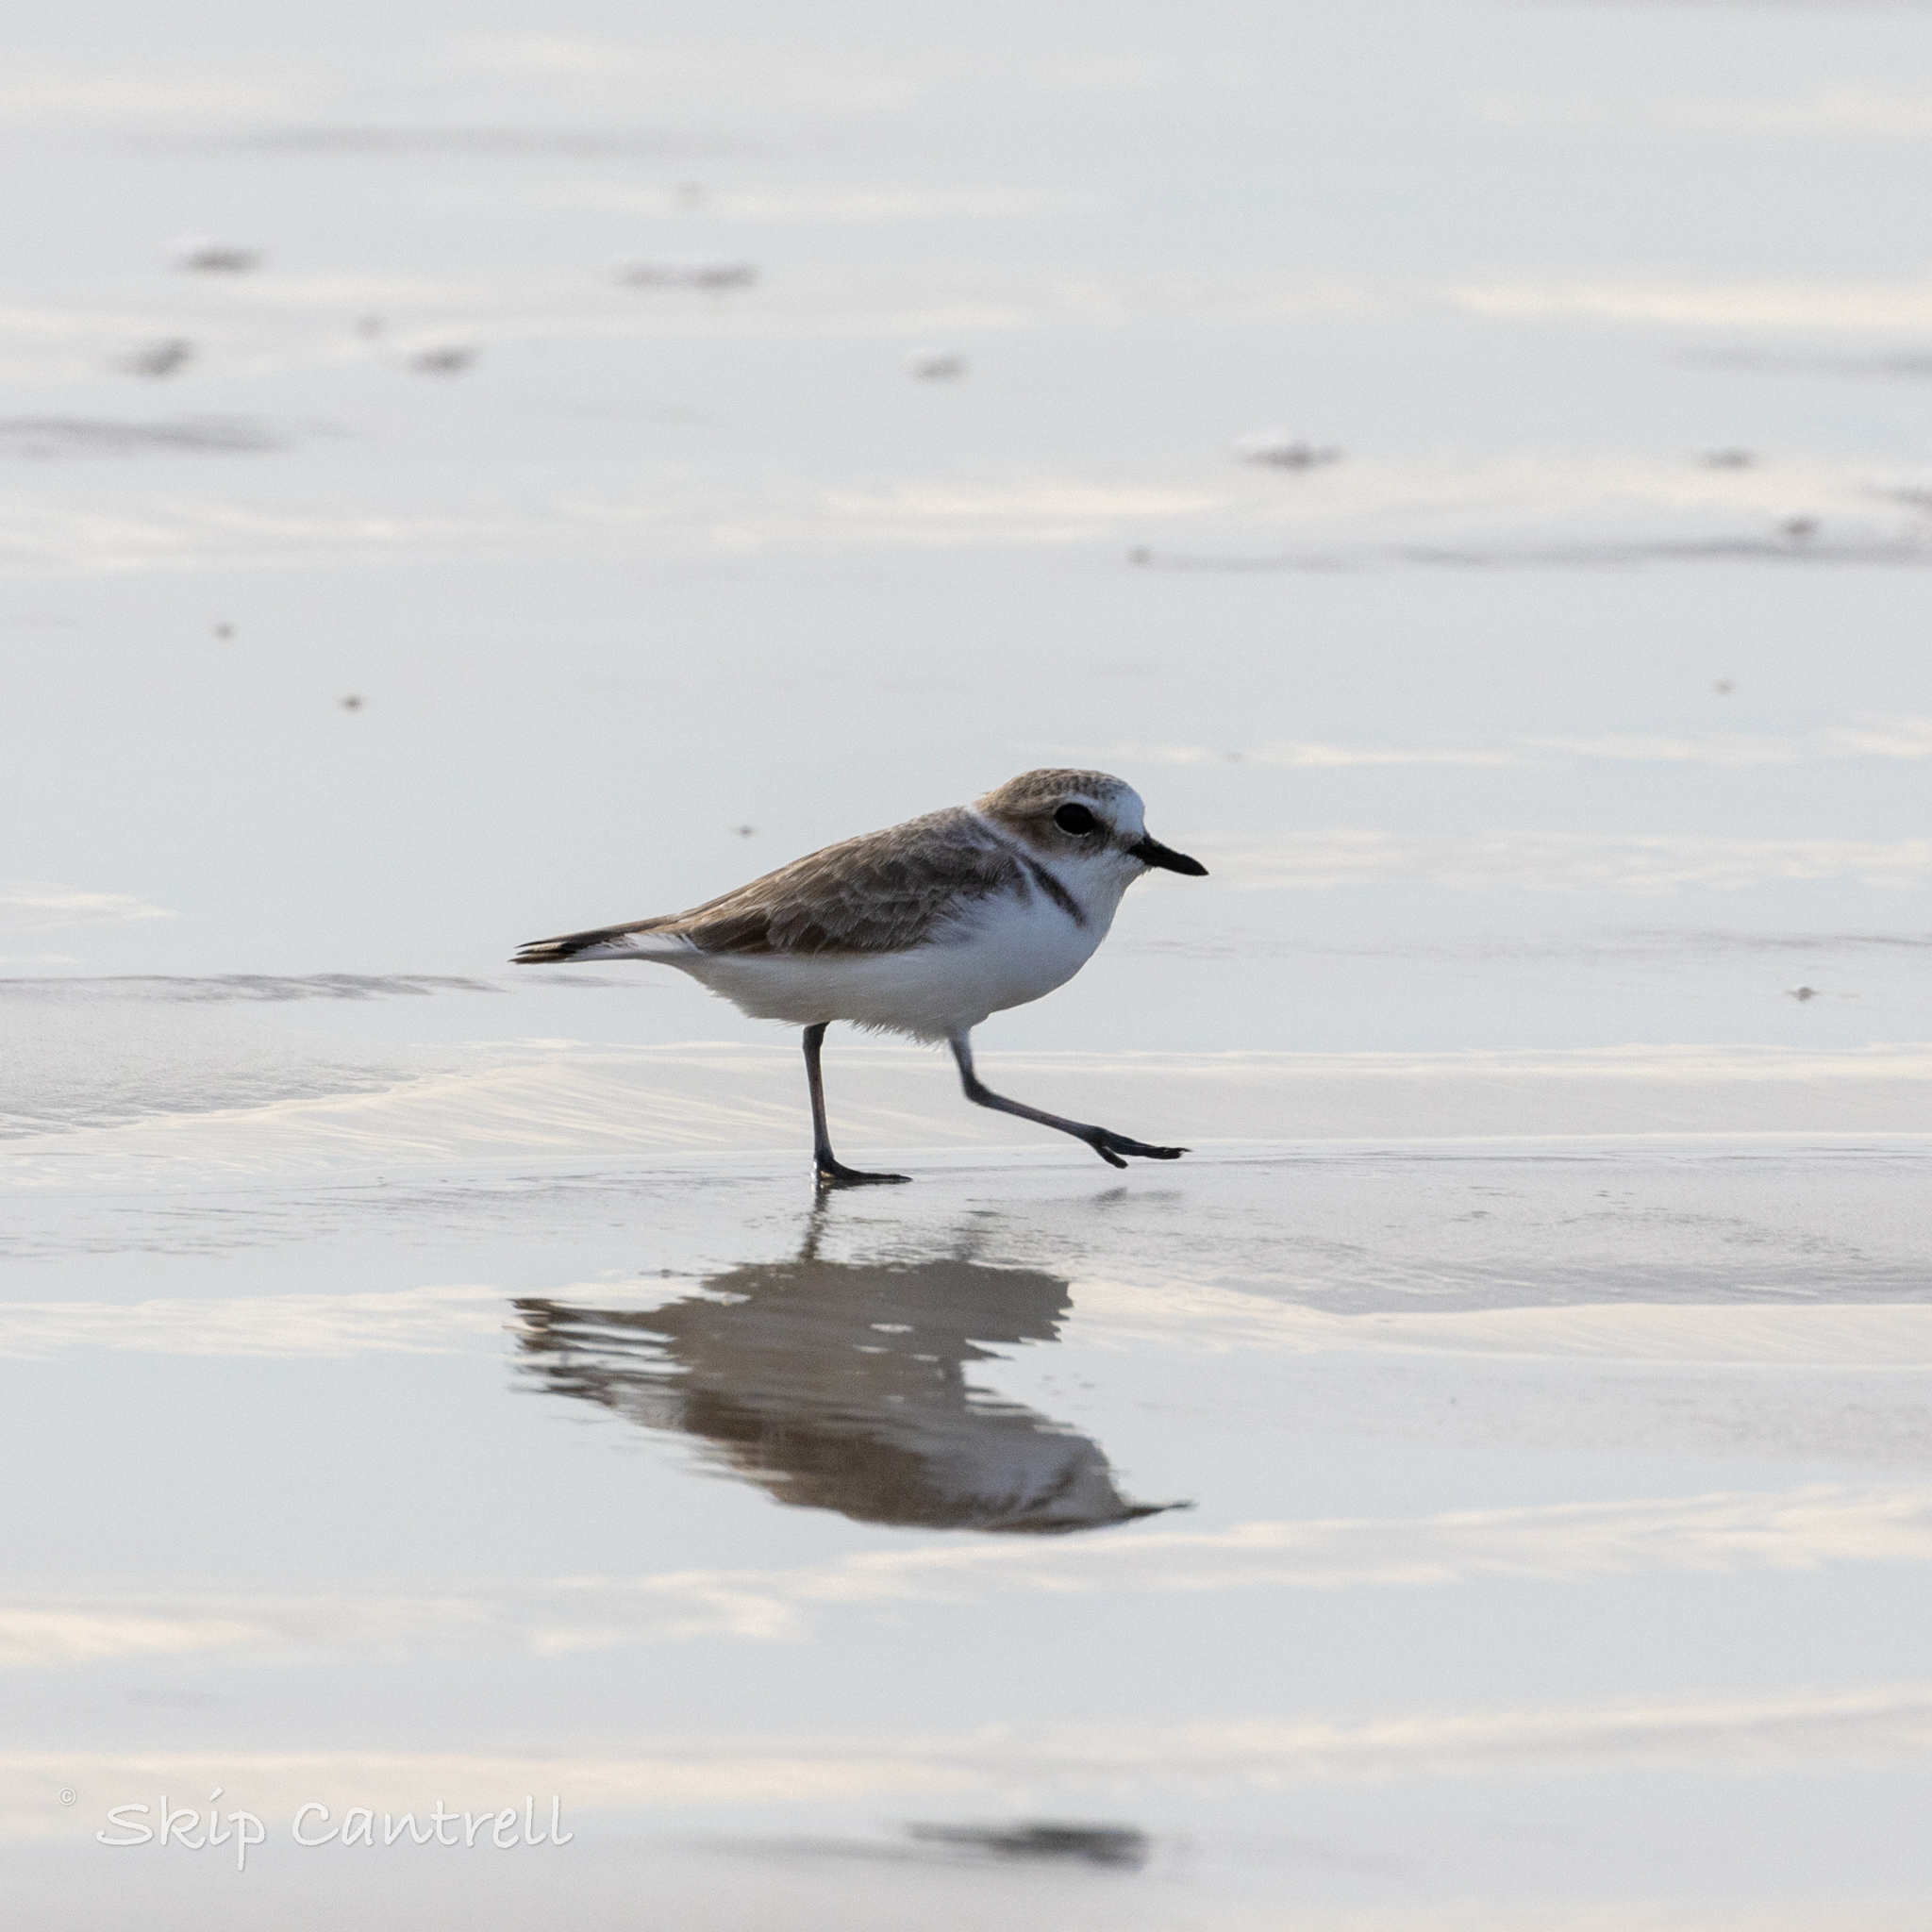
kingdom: Animalia
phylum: Chordata
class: Aves
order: Charadriiformes
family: Charadriidae
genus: Anarhynchus
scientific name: Anarhynchus
